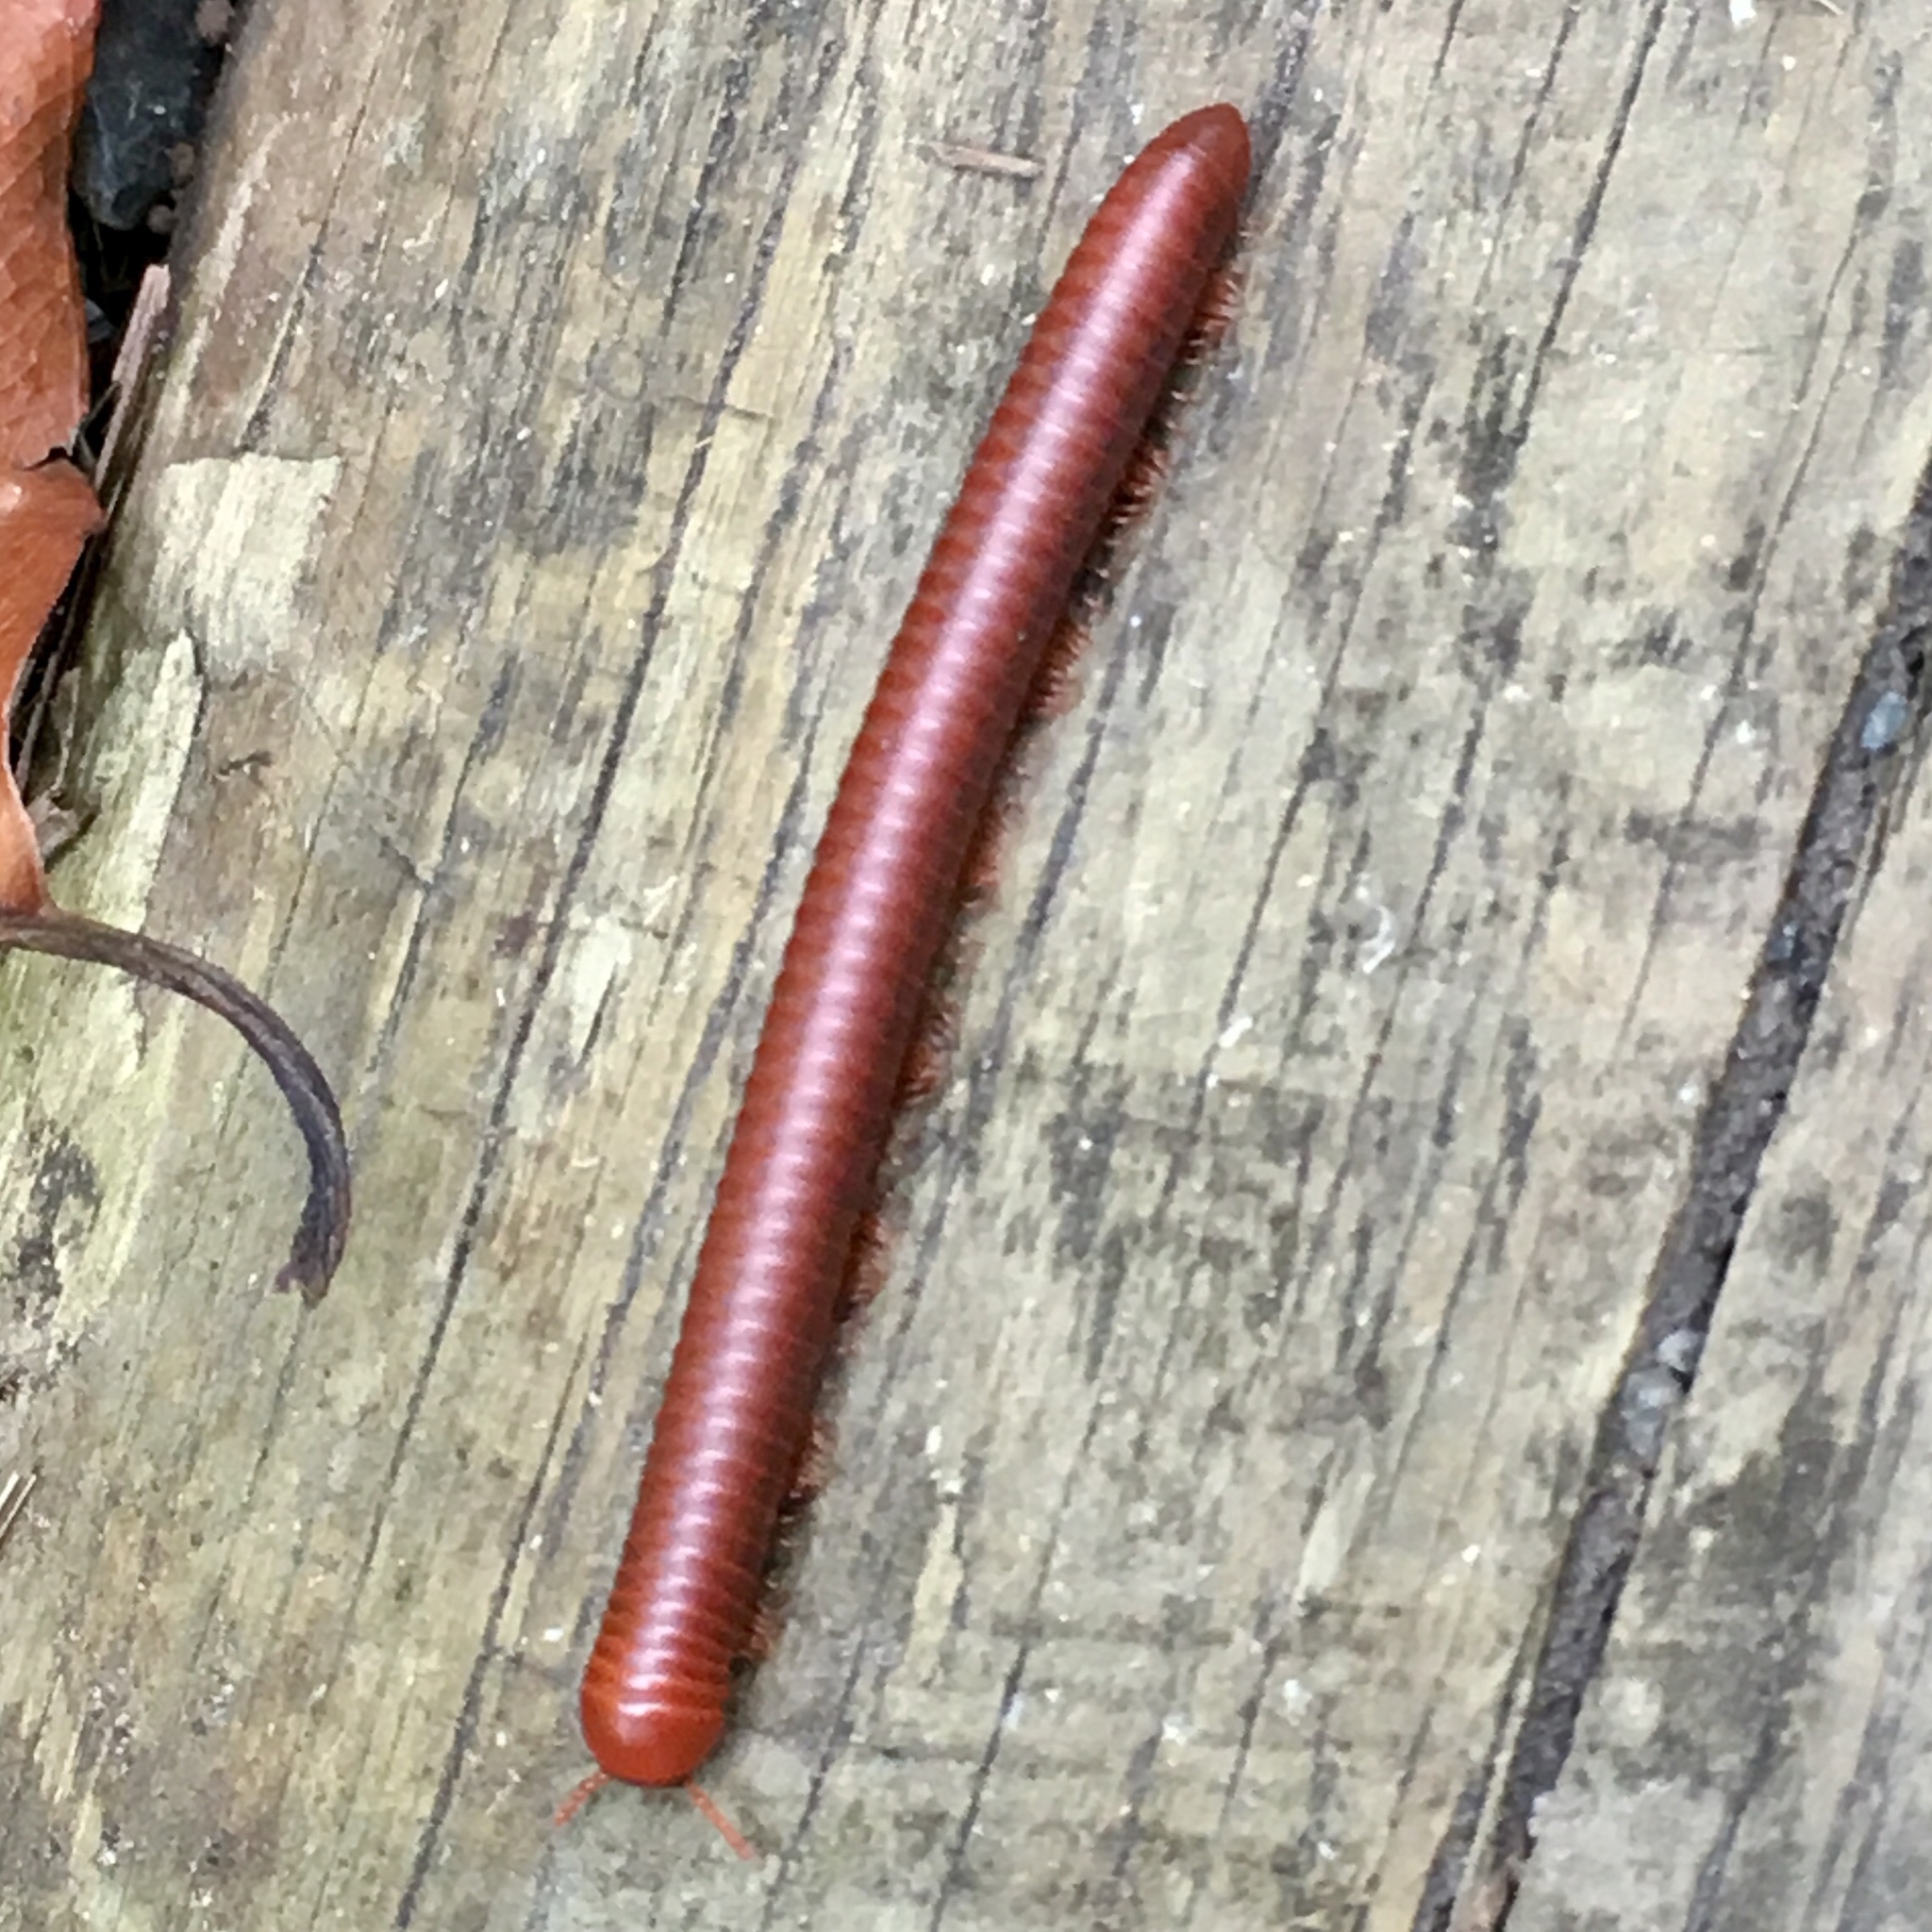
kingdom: Animalia
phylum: Arthropoda
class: Diplopoda
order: Spirobolida
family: Pachybolidae
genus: Trigoniulus
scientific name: Trigoniulus corallinus
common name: Millipede
